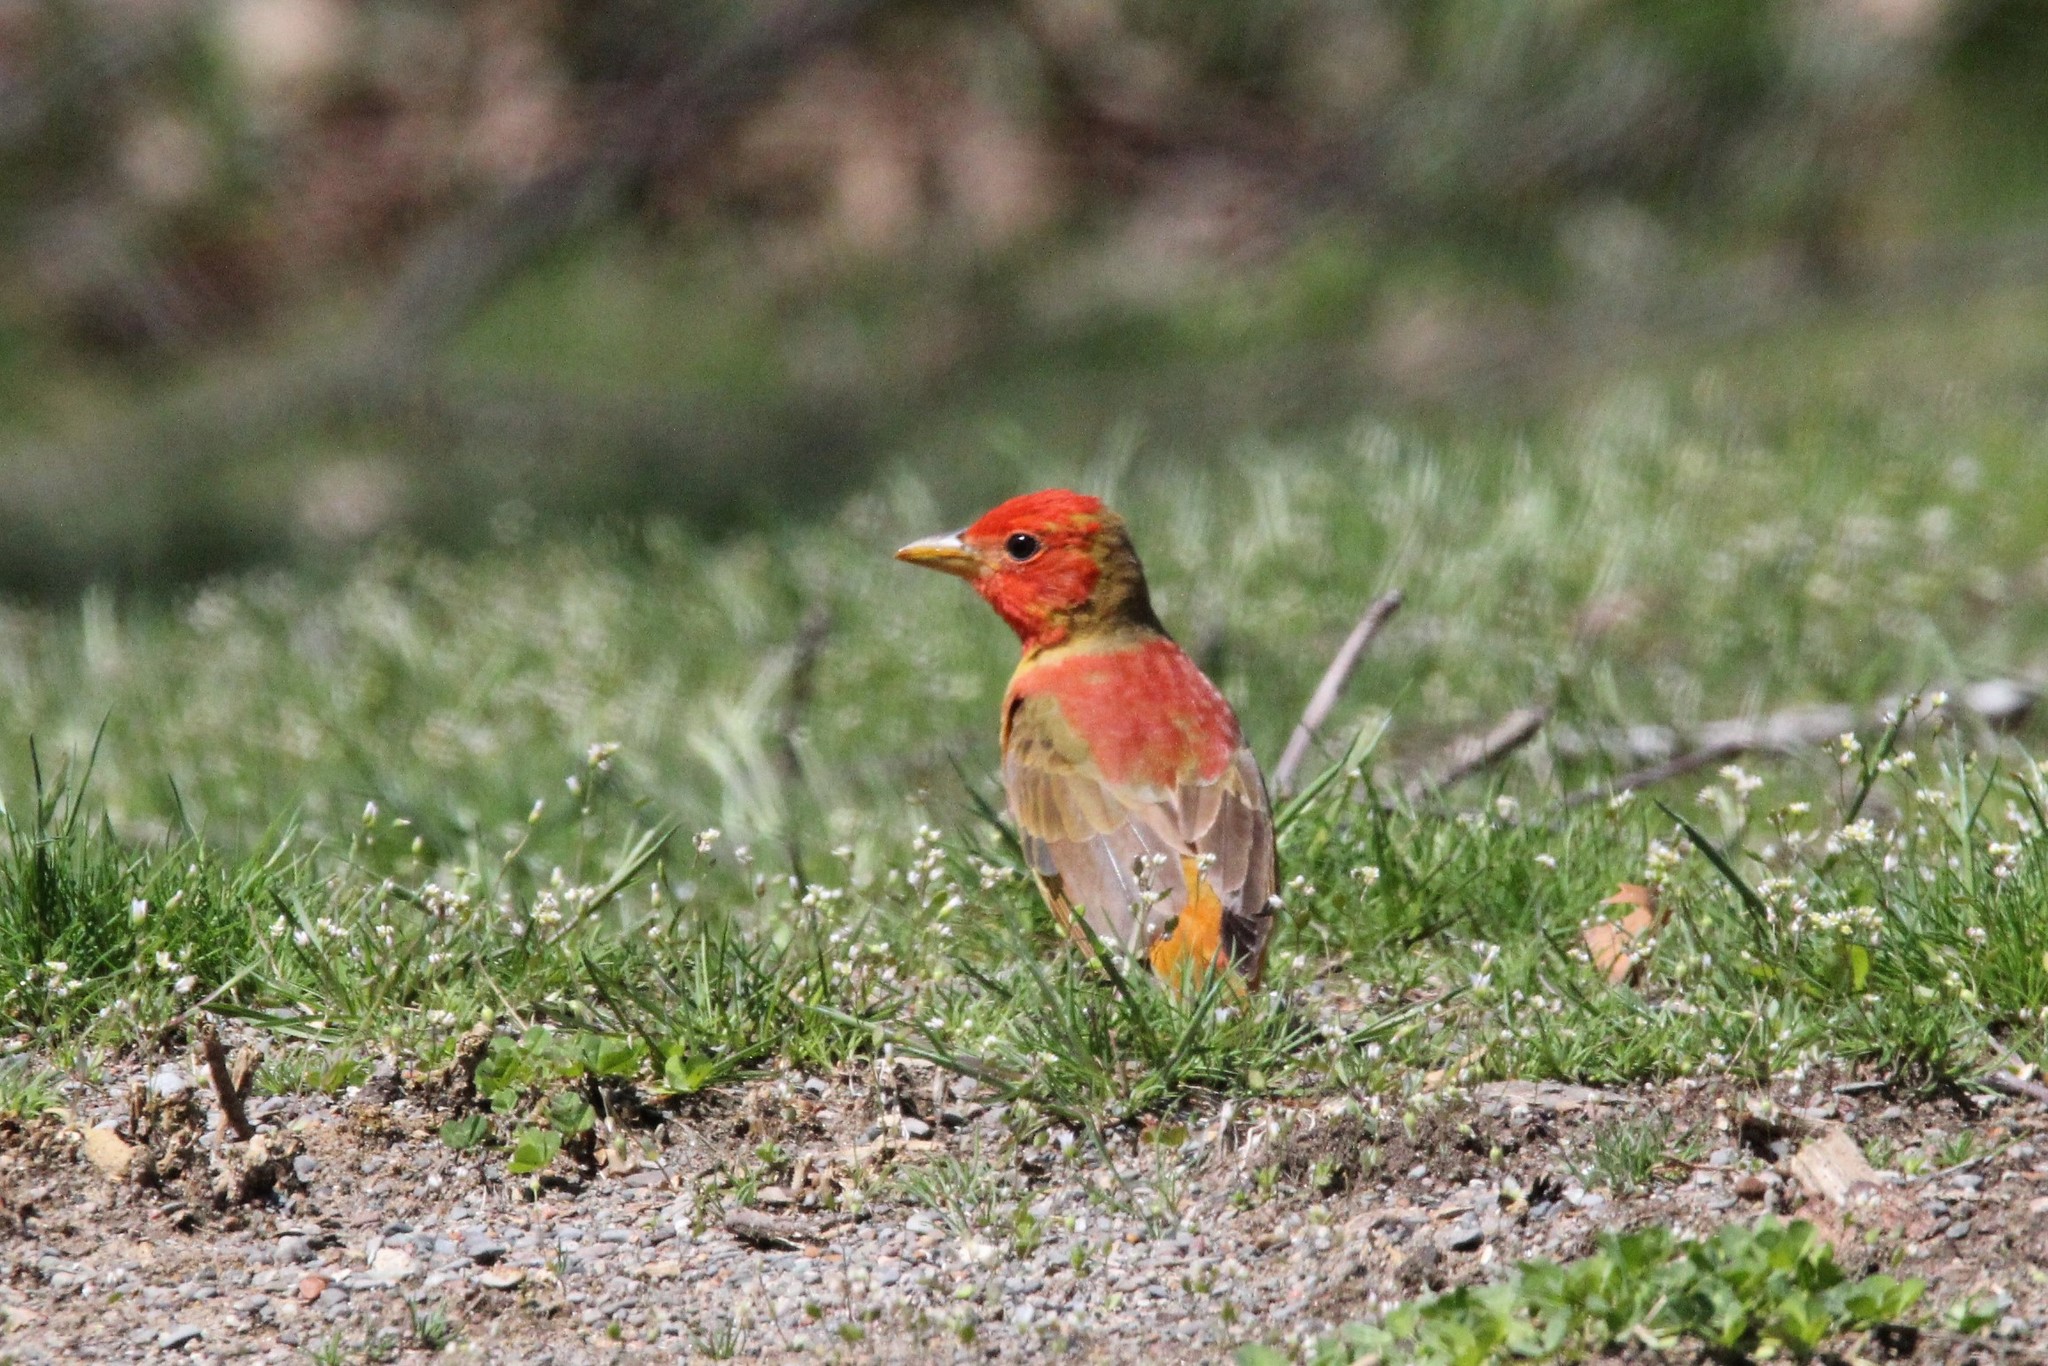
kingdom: Animalia
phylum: Chordata
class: Aves
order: Passeriformes
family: Cardinalidae
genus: Piranga
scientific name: Piranga rubra
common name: Summer tanager
